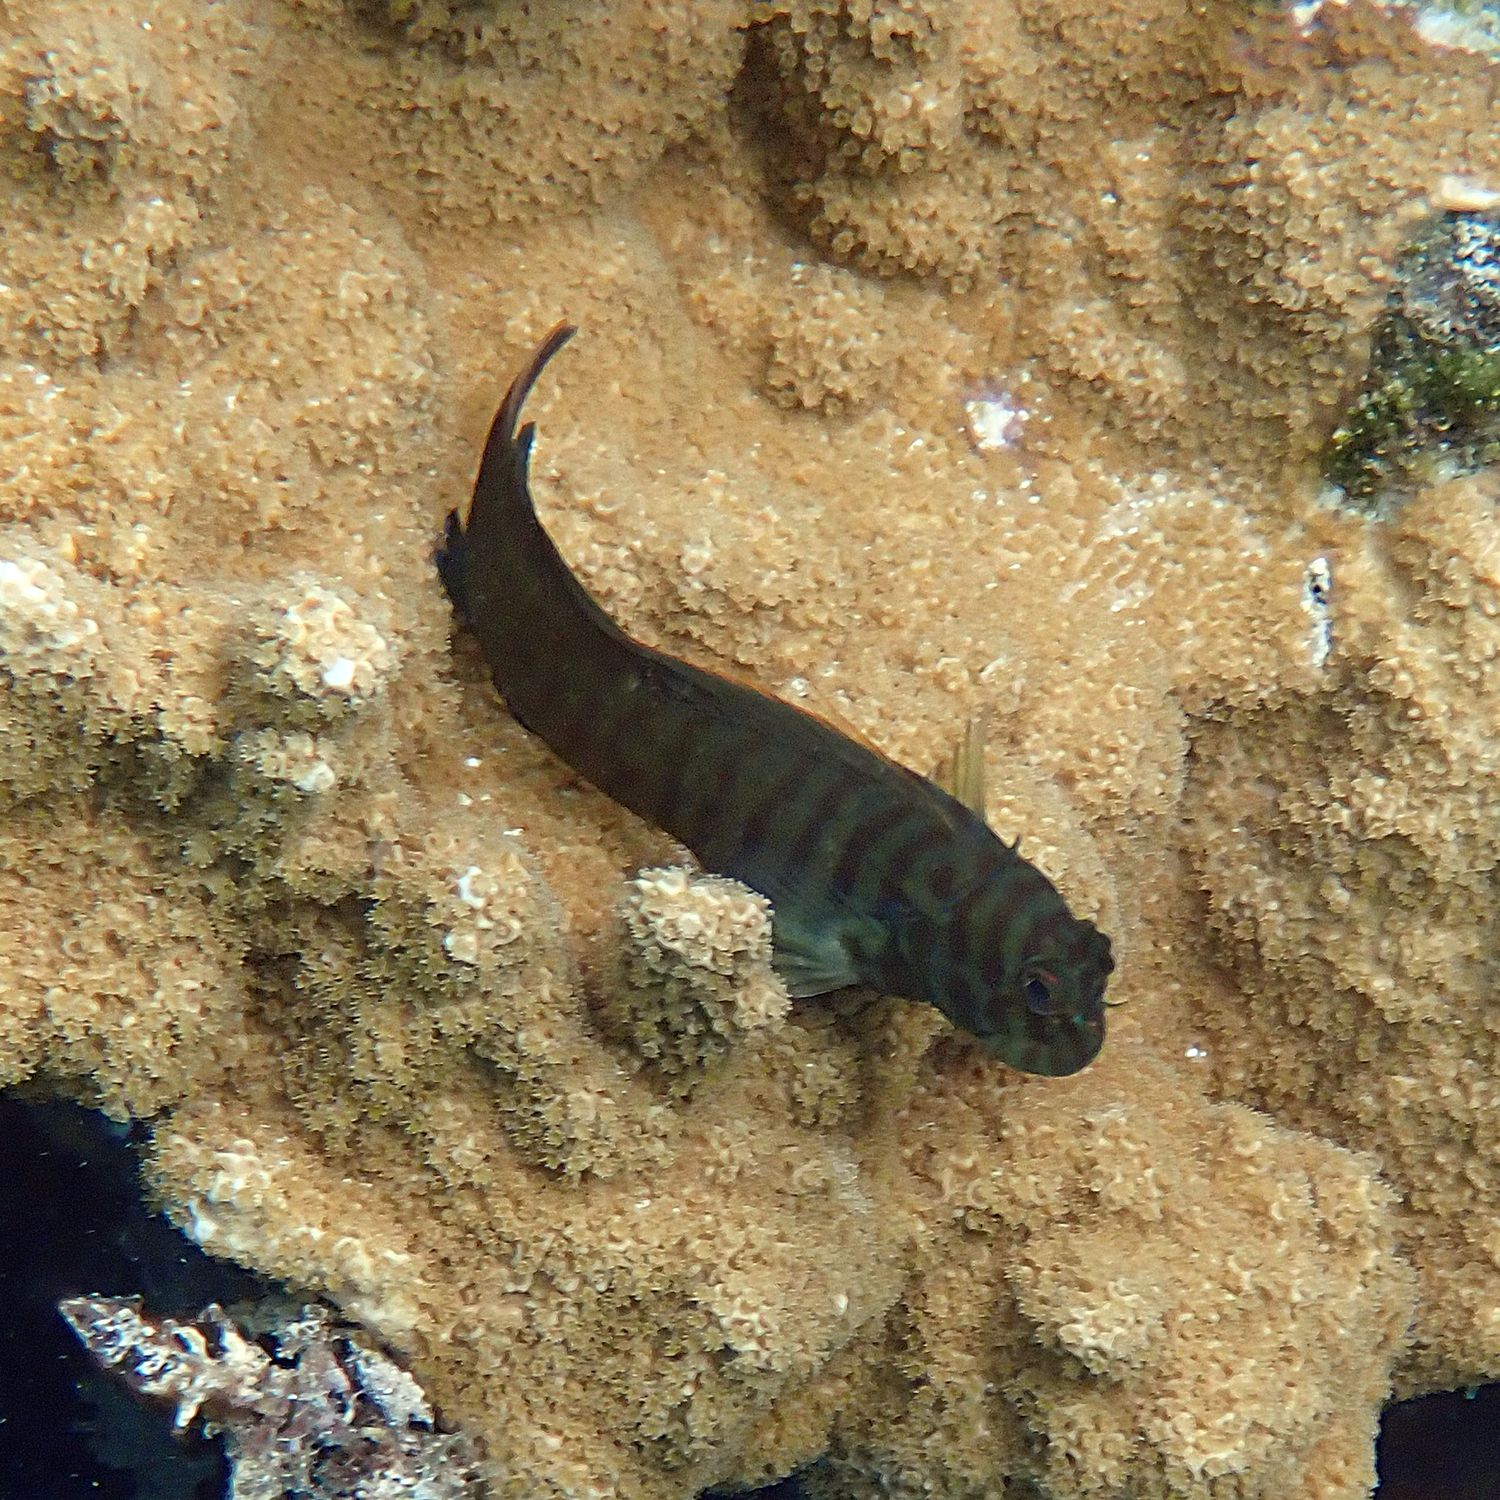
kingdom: Animalia
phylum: Chordata
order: Perciformes
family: Blenniidae
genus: Cirripectes
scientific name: Cirripectes castaneus
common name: Chestnut blenny
